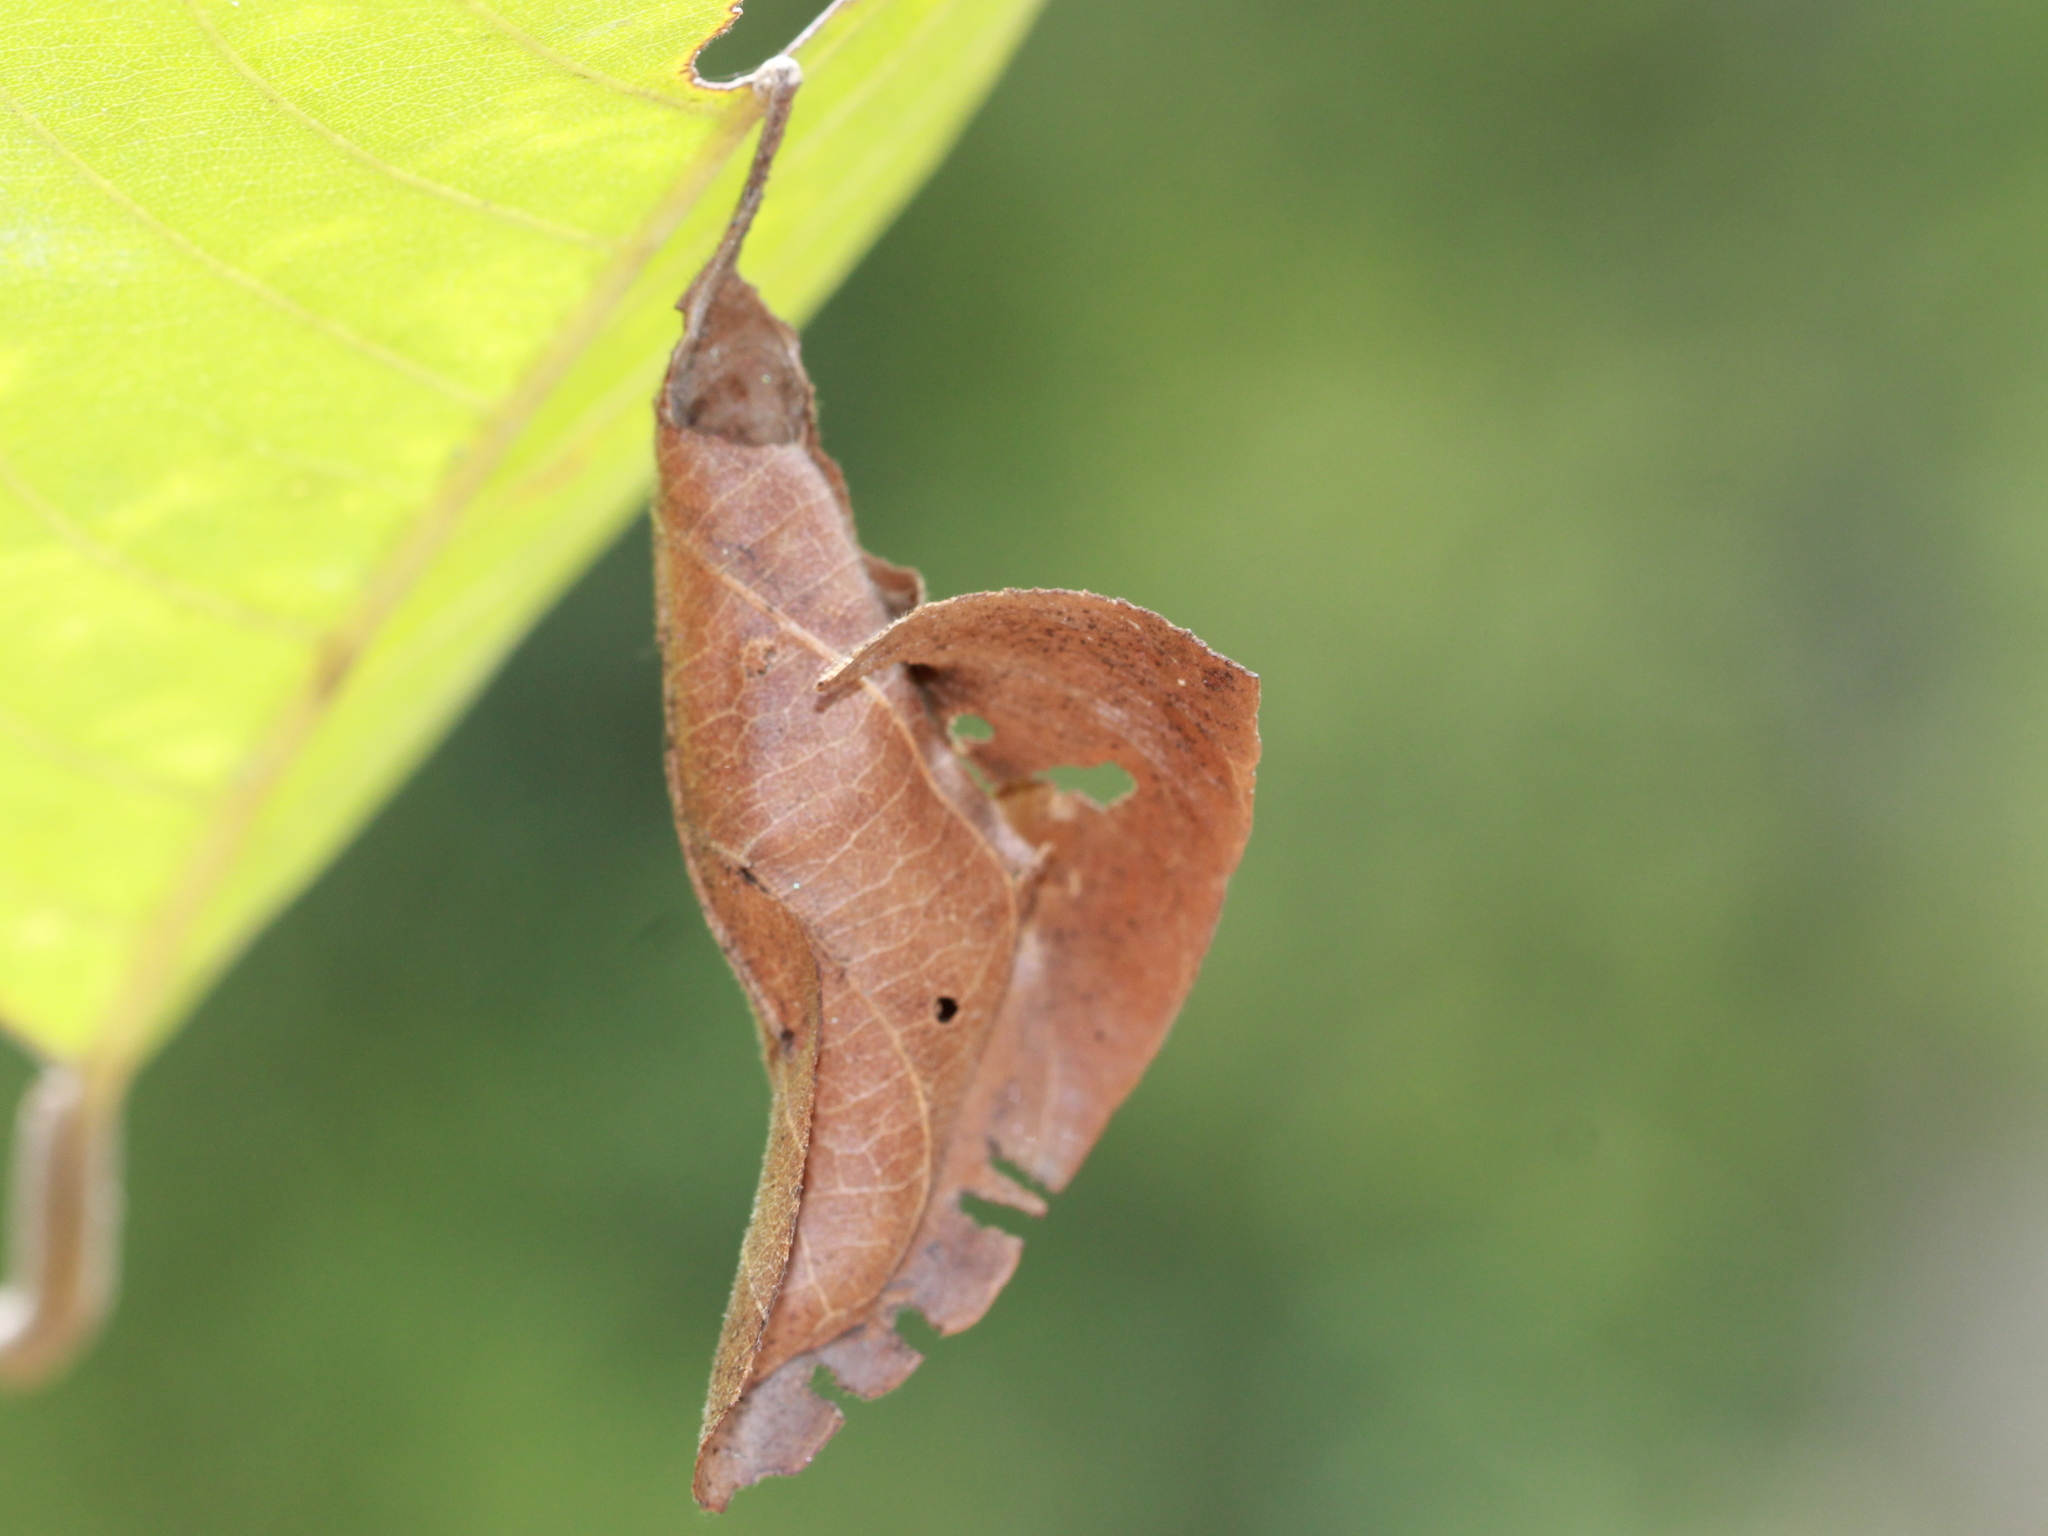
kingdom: Animalia
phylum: Arthropoda
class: Insecta
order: Lepidoptera
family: Hesperiidae
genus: Coladenia
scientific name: Coladenia
